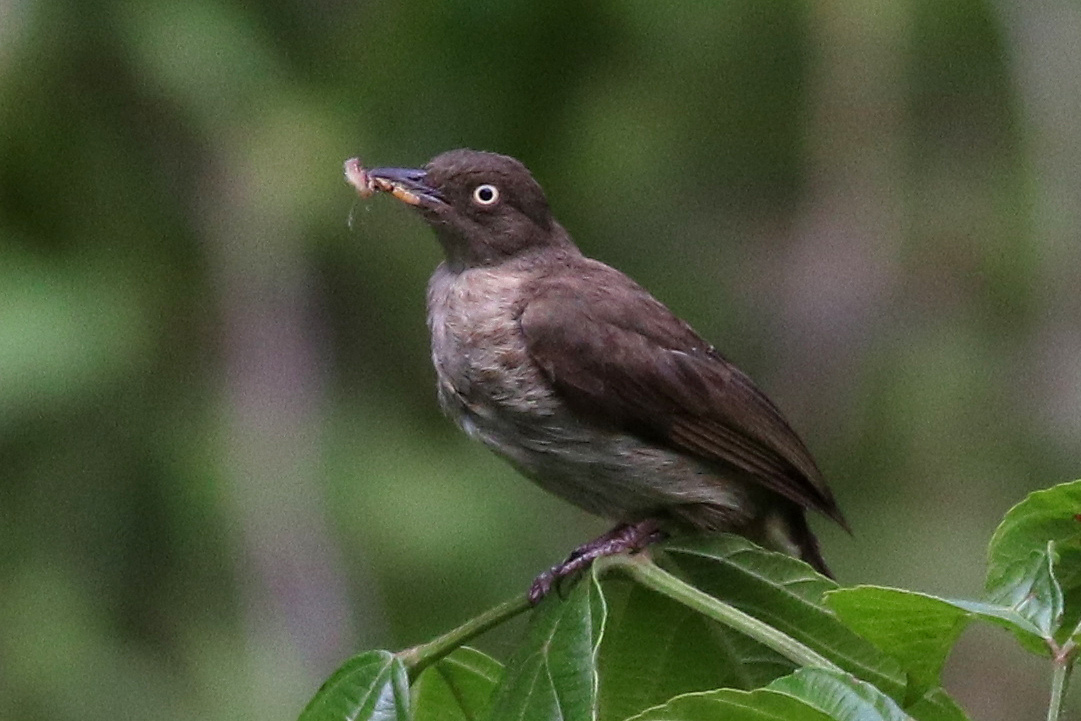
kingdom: Animalia
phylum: Chordata
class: Aves
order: Passeriformes
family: Pycnonotidae
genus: Pycnonotus
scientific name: Pycnonotus simplex
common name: Cream-vented bulbul
